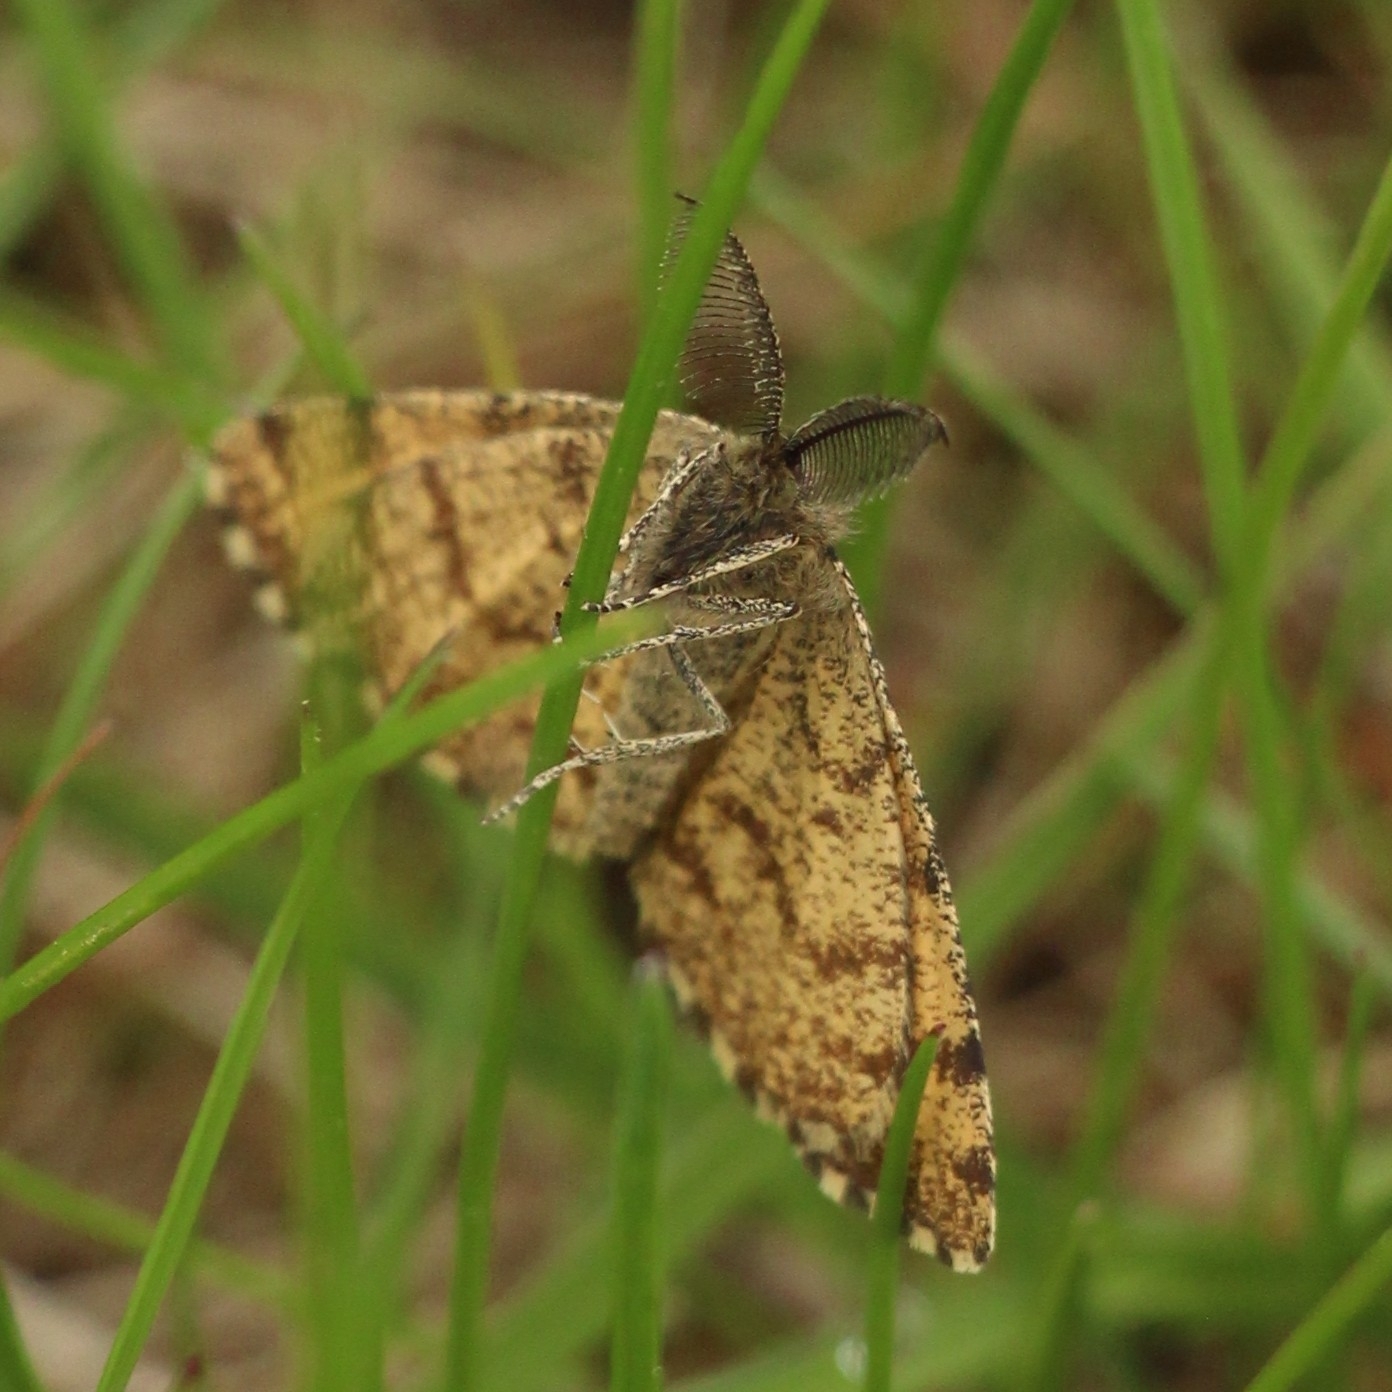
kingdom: Animalia
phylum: Arthropoda
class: Insecta
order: Lepidoptera
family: Geometridae
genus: Ematurga
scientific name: Ematurga atomaria
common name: Common heath
